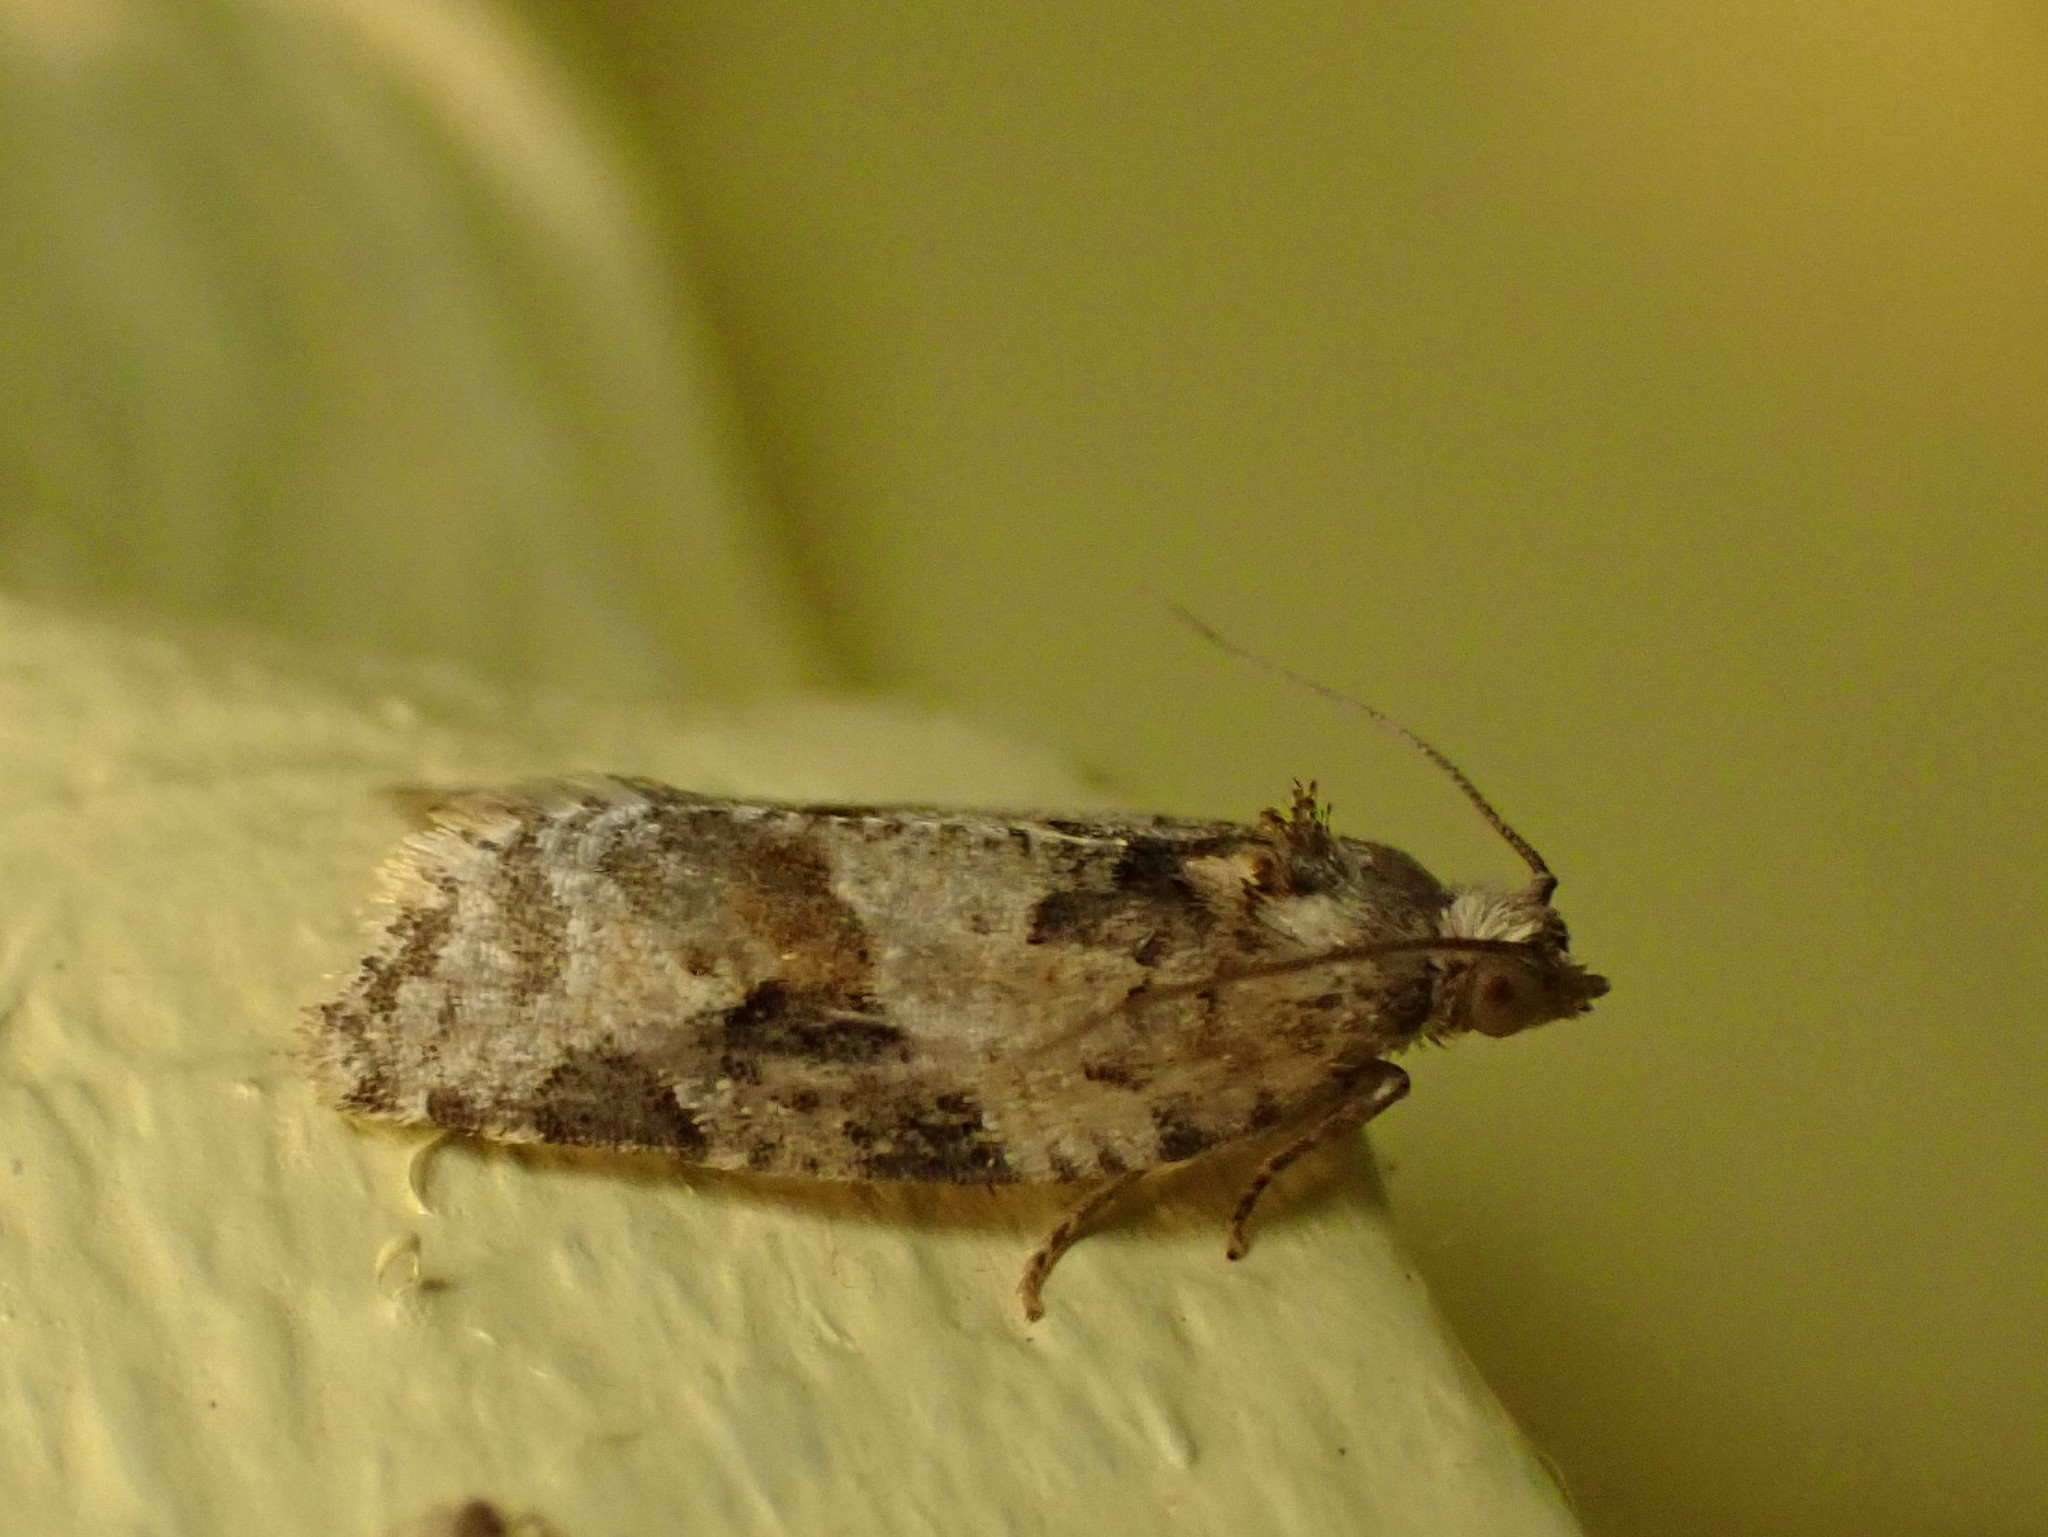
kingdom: Animalia
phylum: Arthropoda
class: Insecta
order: Lepidoptera
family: Tortricidae
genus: Argyrotaenia
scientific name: Argyrotaenia mariana
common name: Gray-banded leafroller moth
